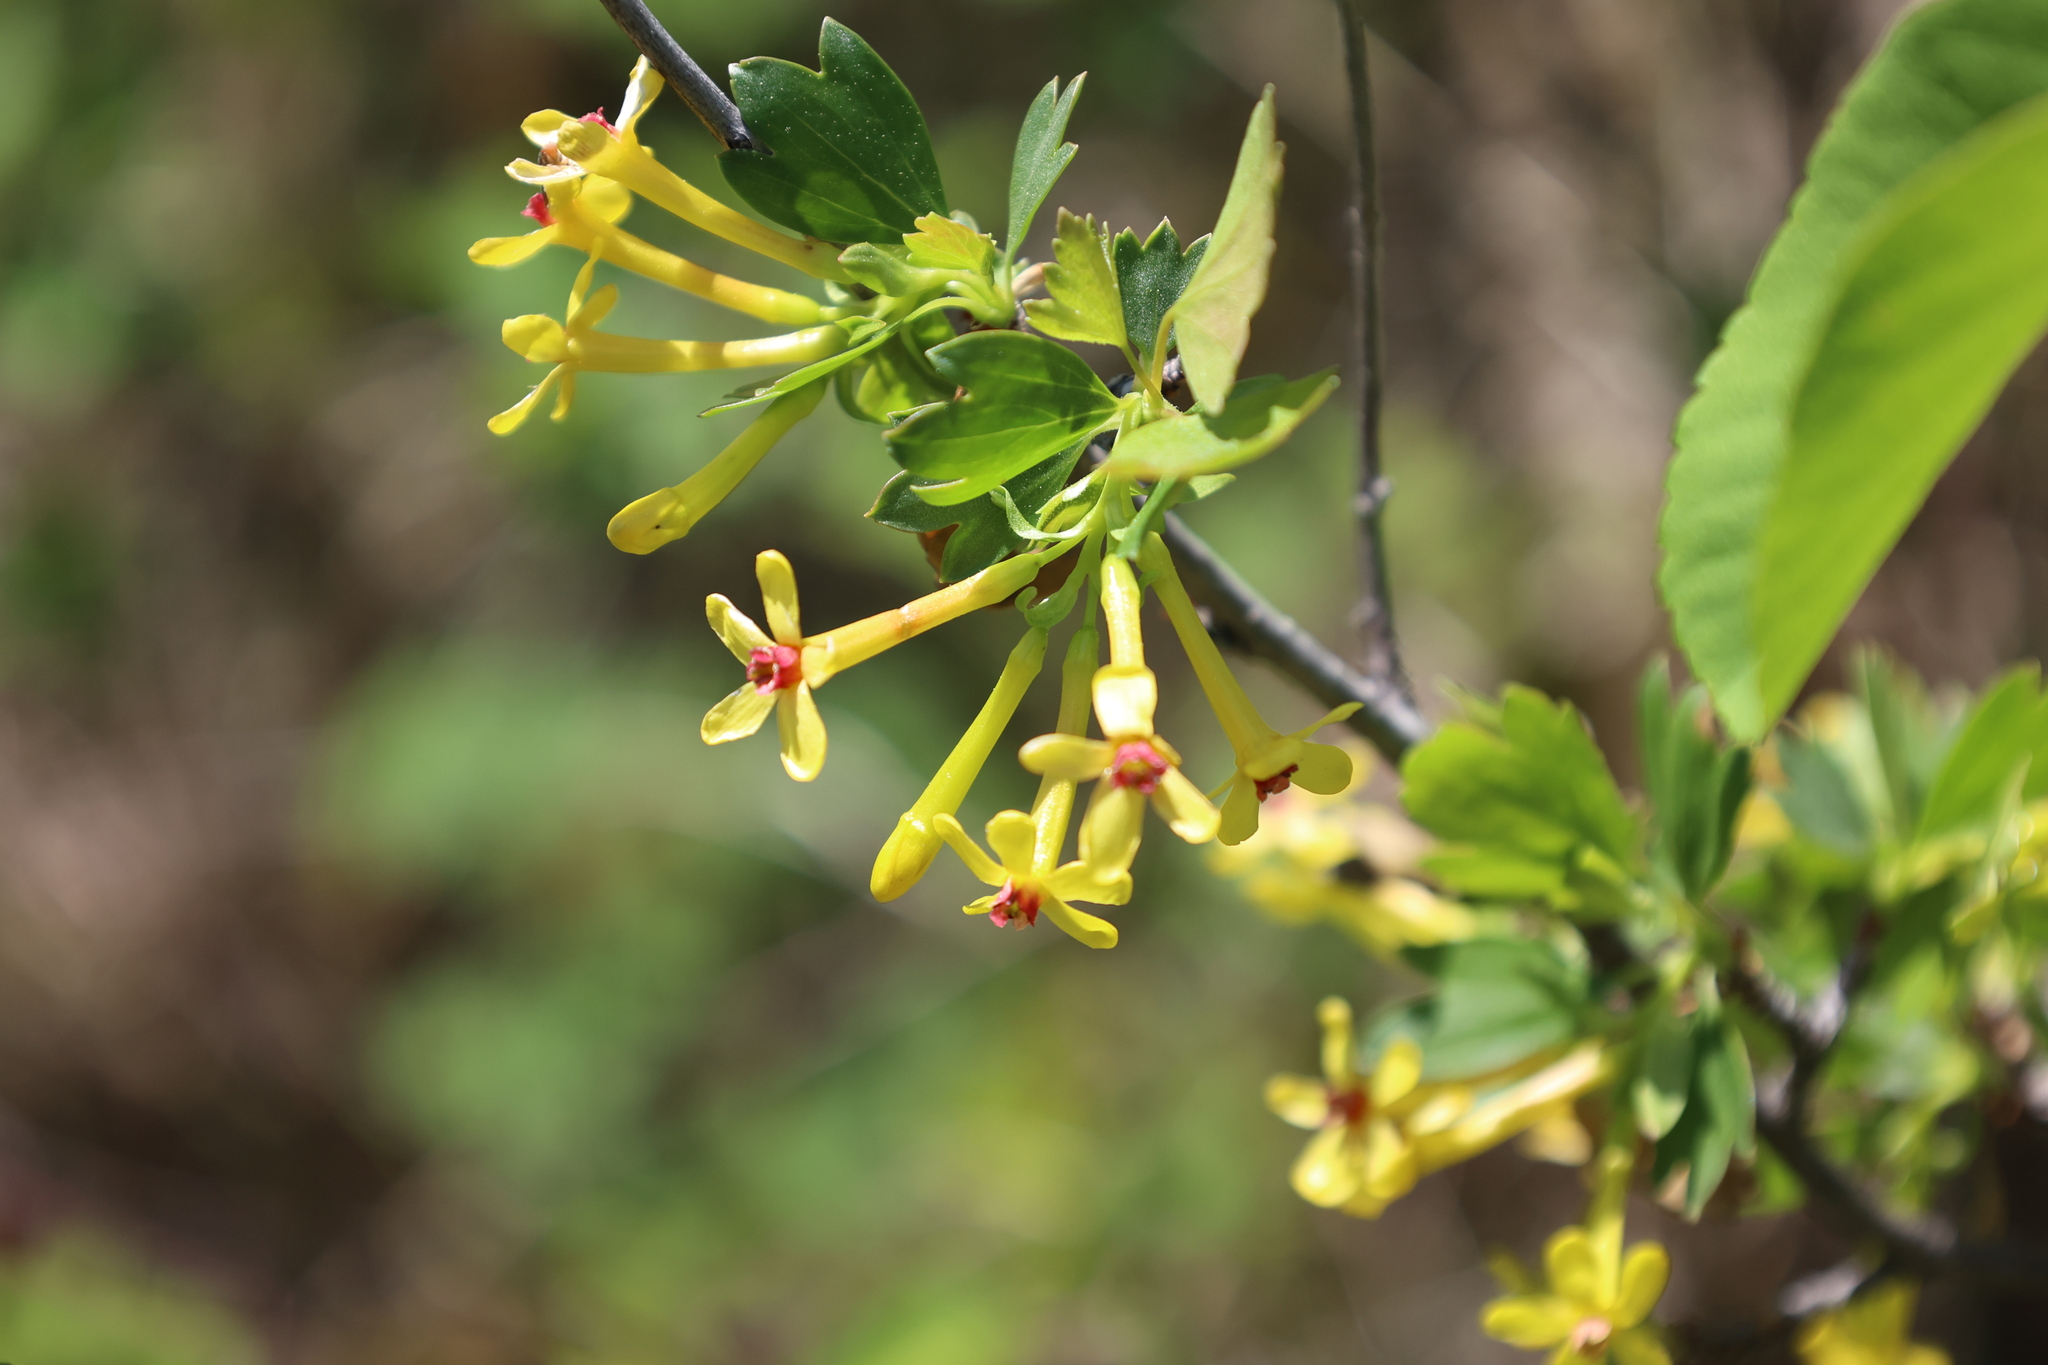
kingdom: Plantae
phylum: Tracheophyta
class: Magnoliopsida
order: Saxifragales
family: Grossulariaceae
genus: Ribes
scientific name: Ribes aureum
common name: Golden currant
